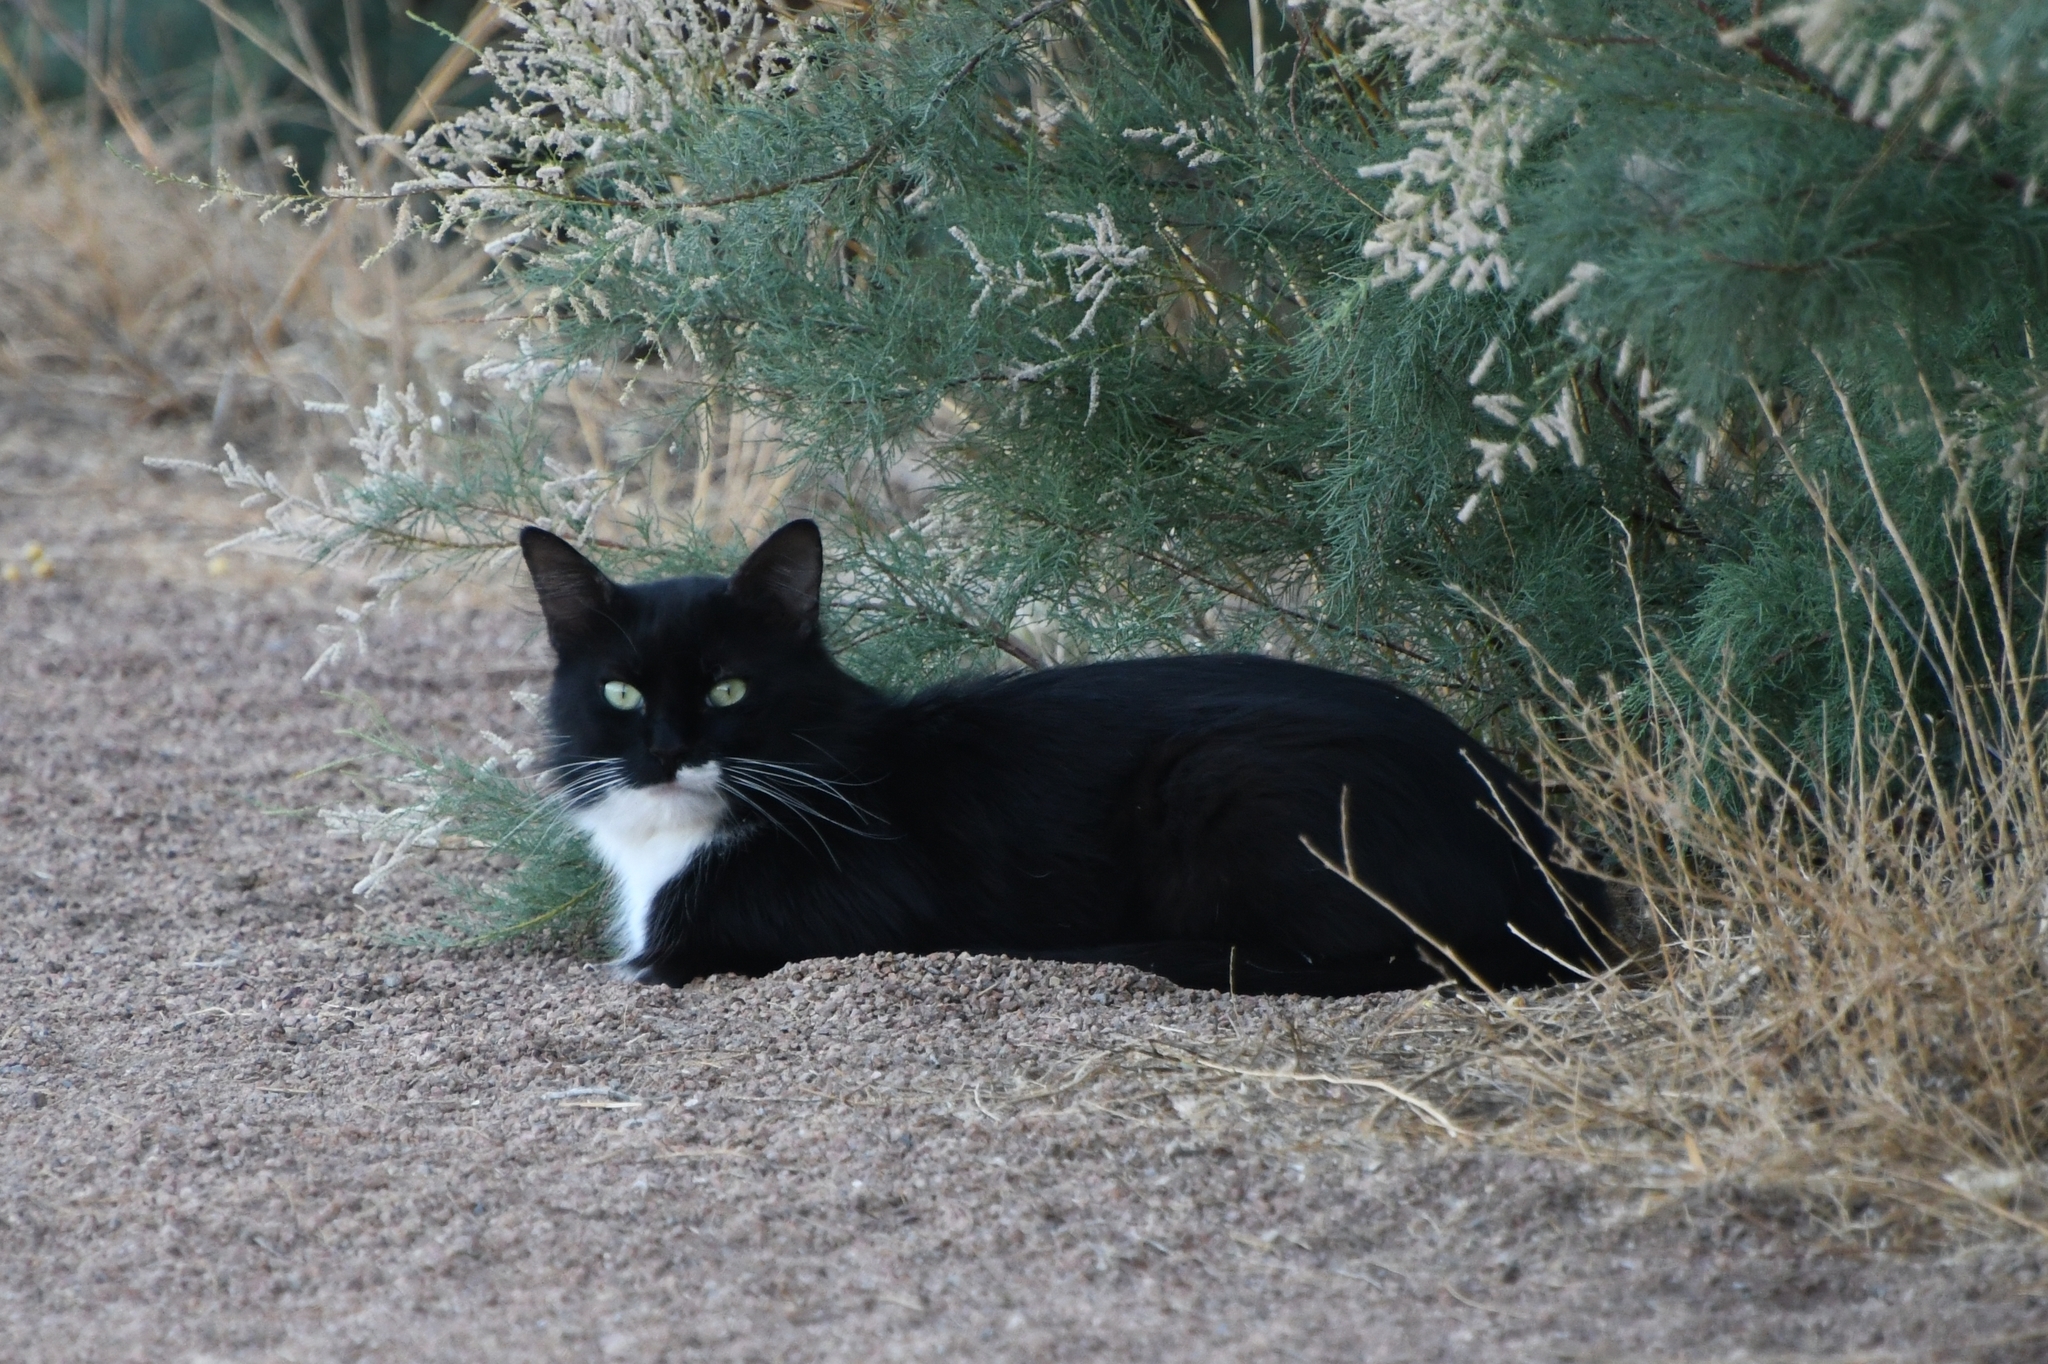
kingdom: Animalia
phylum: Chordata
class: Mammalia
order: Carnivora
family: Felidae
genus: Felis
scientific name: Felis catus
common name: Domestic cat
